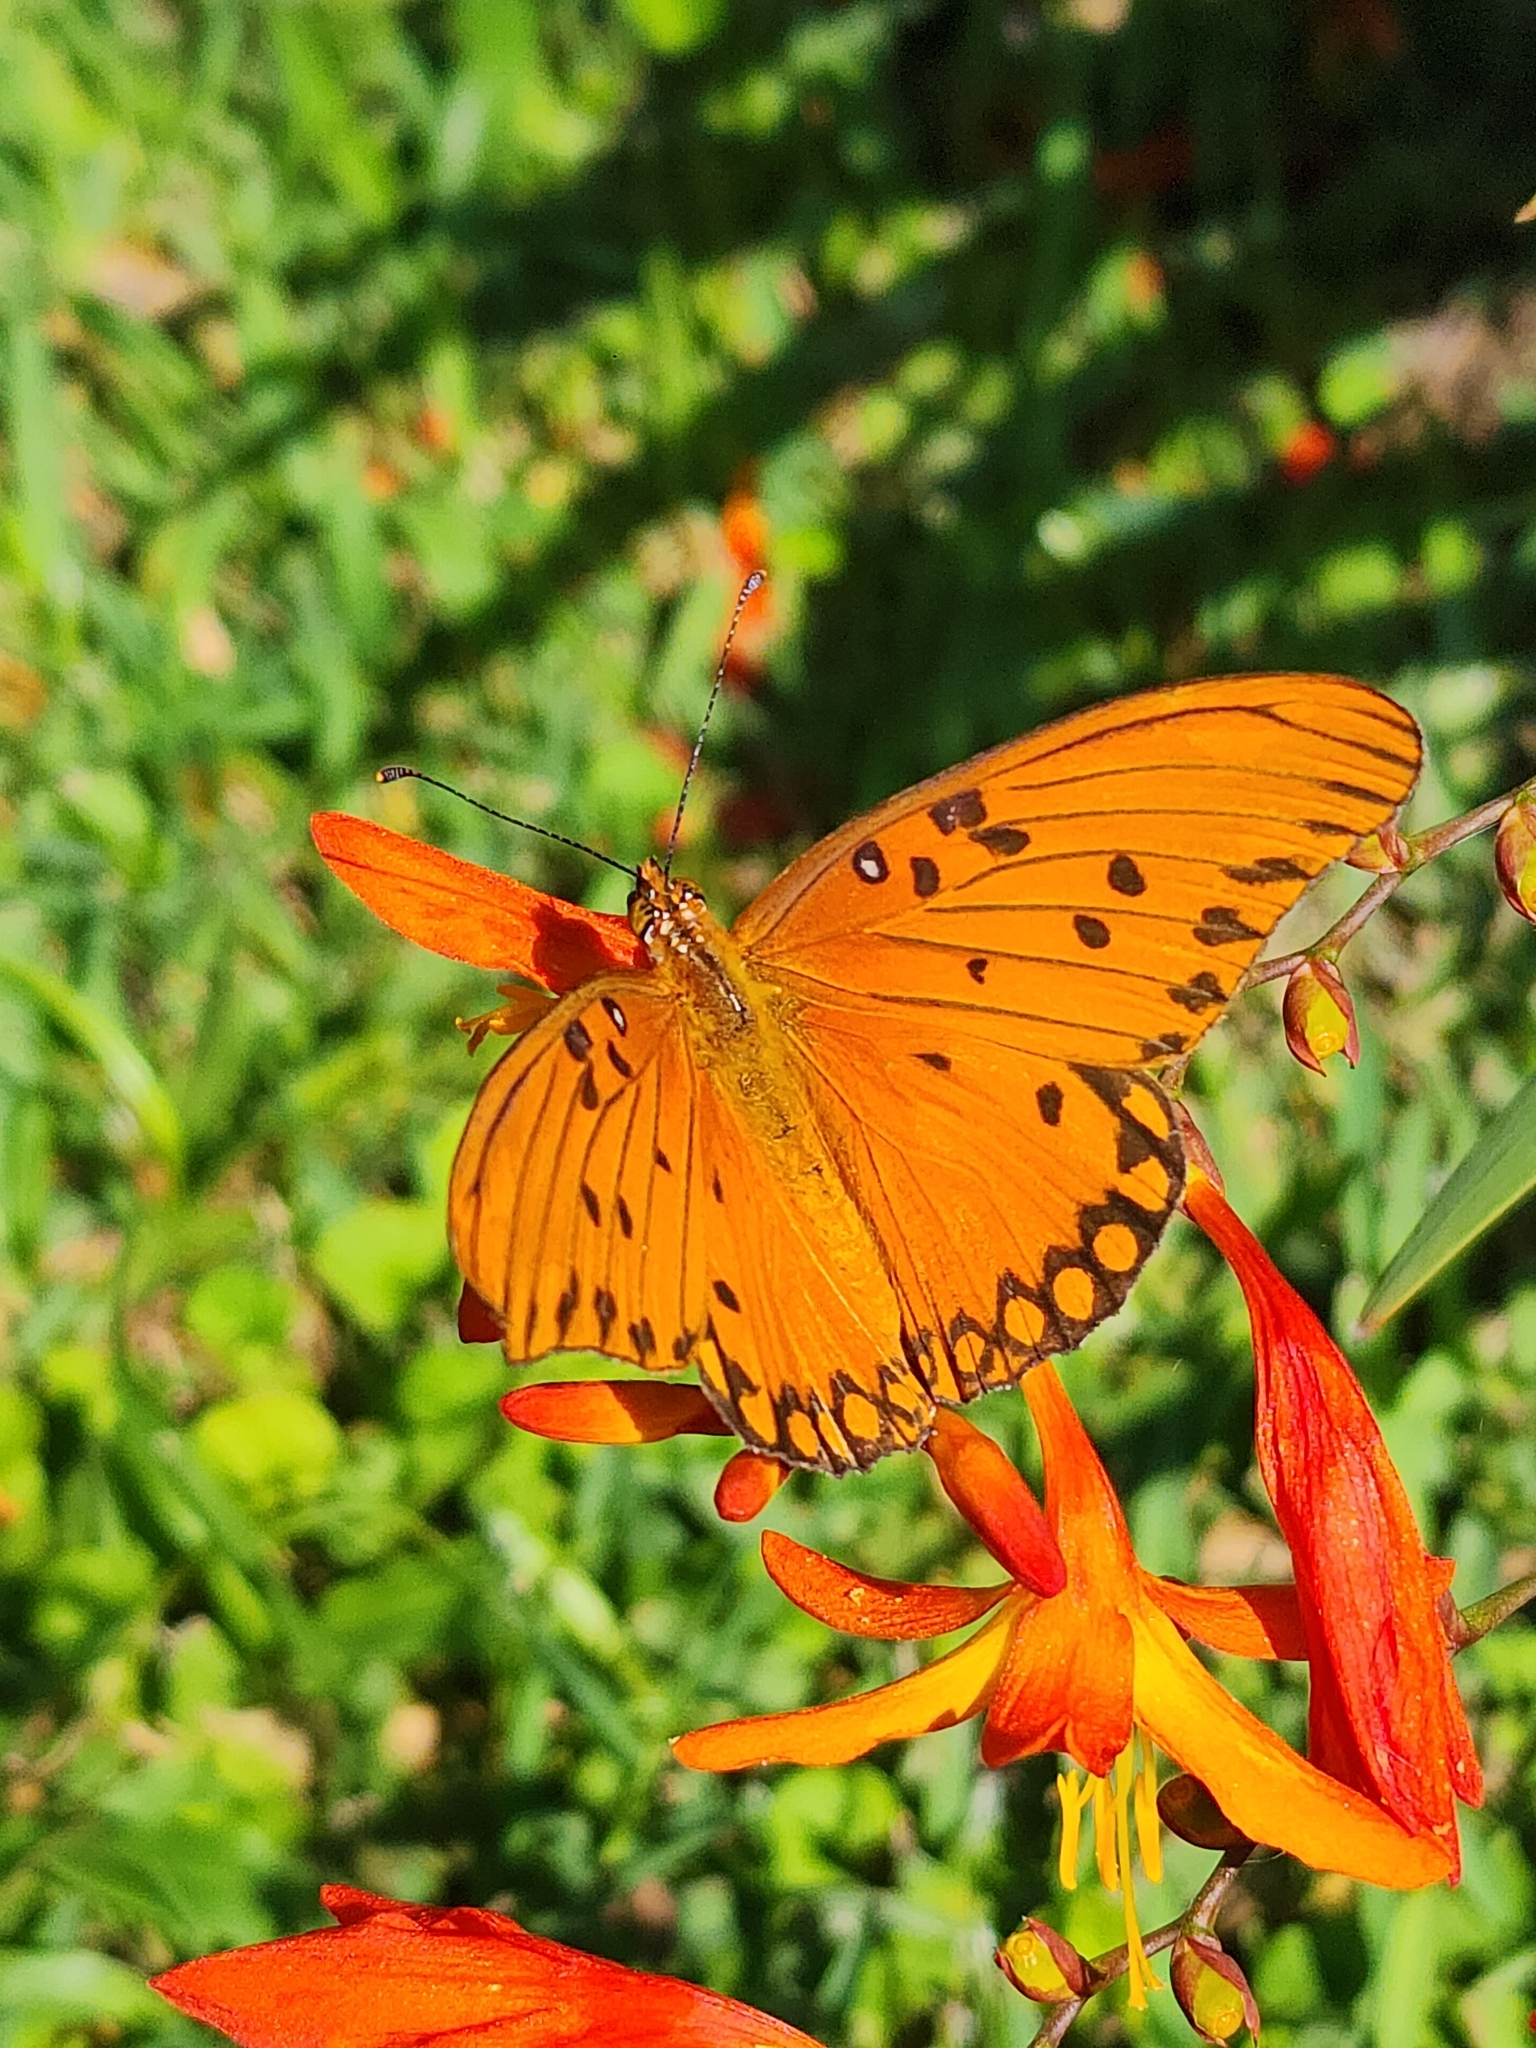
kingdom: Animalia
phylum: Arthropoda
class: Insecta
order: Lepidoptera
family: Nymphalidae
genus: Dione
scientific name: Dione vanillae
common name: Gulf fritillary
